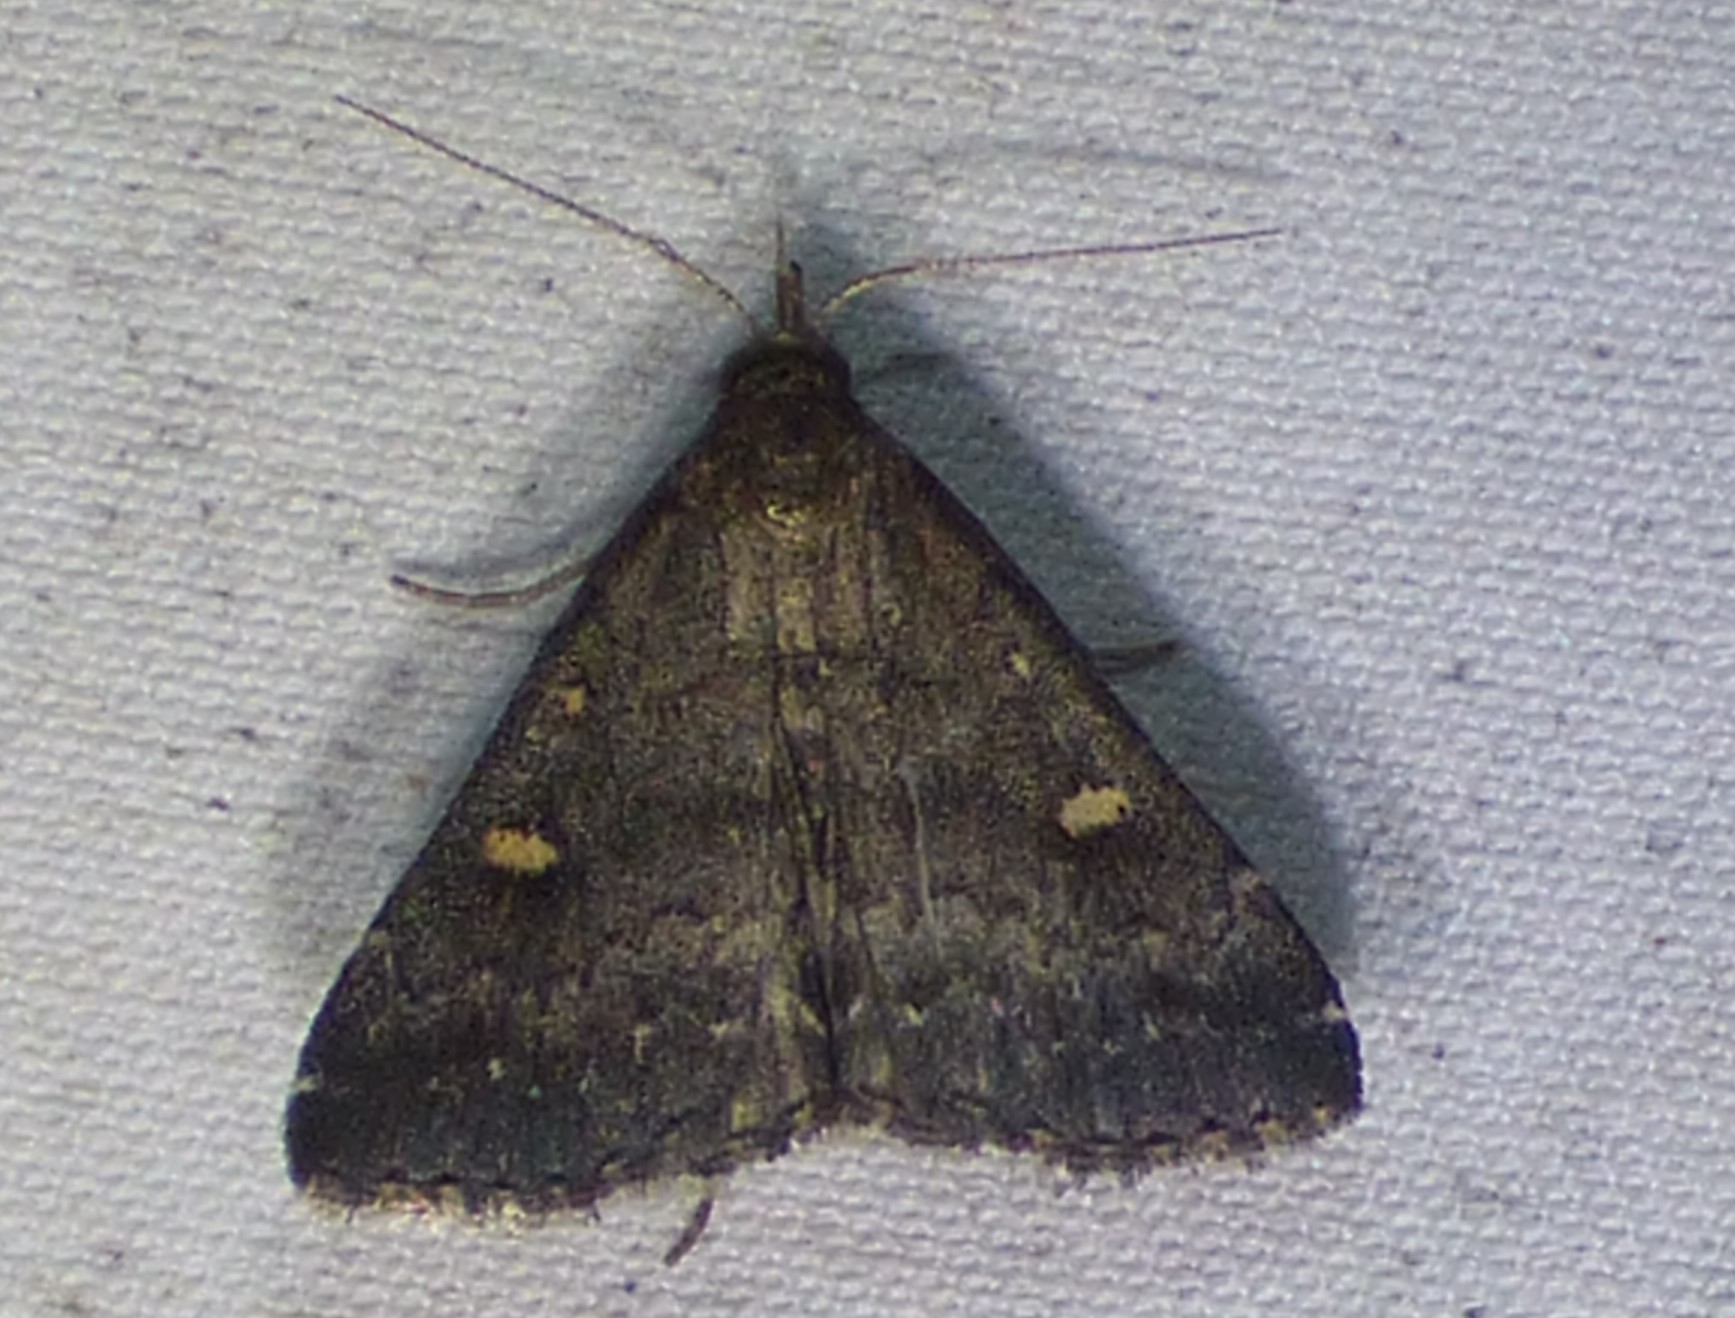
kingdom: Animalia
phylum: Arthropoda
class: Insecta
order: Lepidoptera
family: Erebidae
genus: Tetanolita
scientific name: Tetanolita mynesalis
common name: Smoky tetanolita moth
